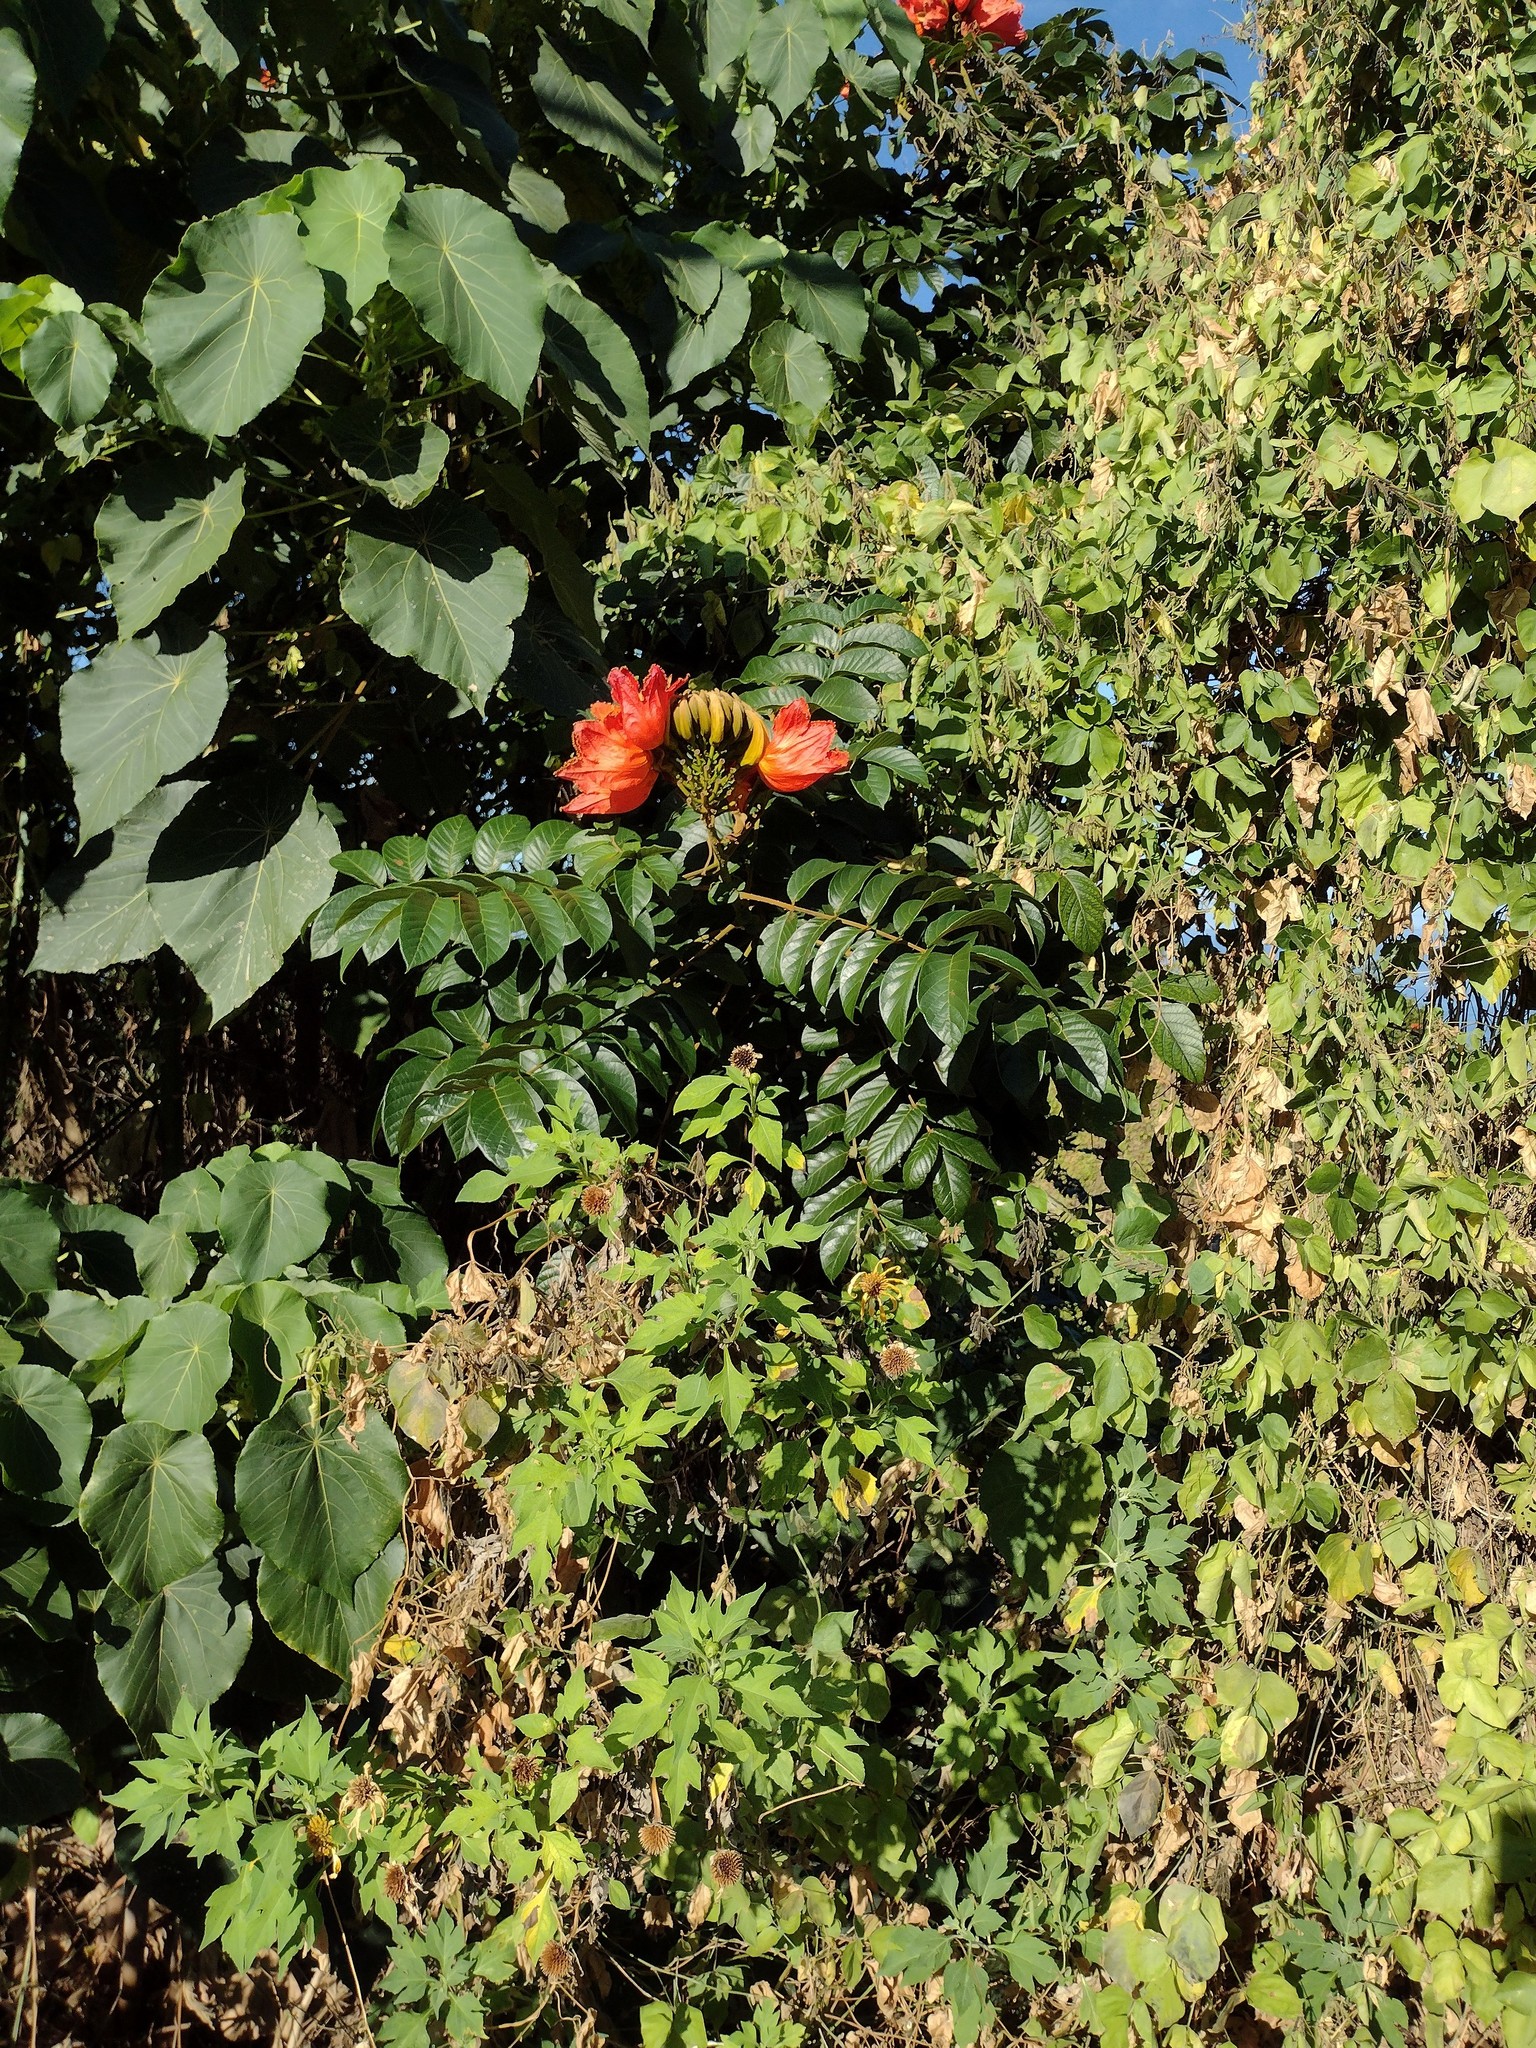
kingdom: Plantae
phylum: Tracheophyta
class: Magnoliopsida
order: Lamiales
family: Bignoniaceae
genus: Spathodea
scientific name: Spathodea campanulata
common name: African tuliptree
